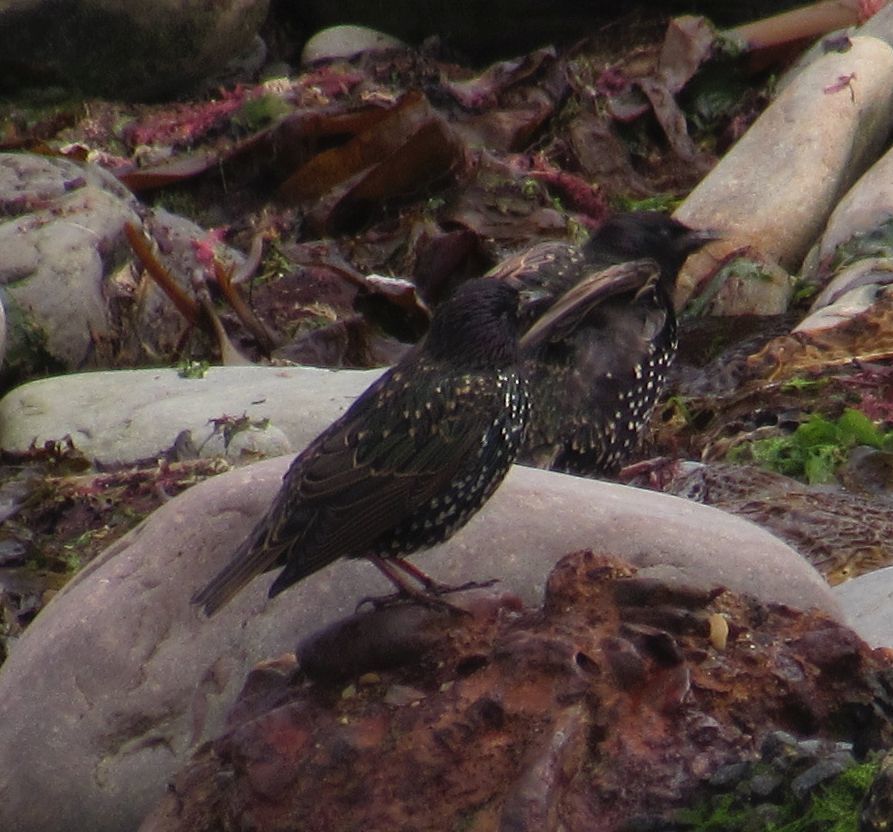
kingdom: Animalia
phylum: Chordata
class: Aves
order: Passeriformes
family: Sturnidae
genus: Sturnus
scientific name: Sturnus vulgaris
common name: Common starling
